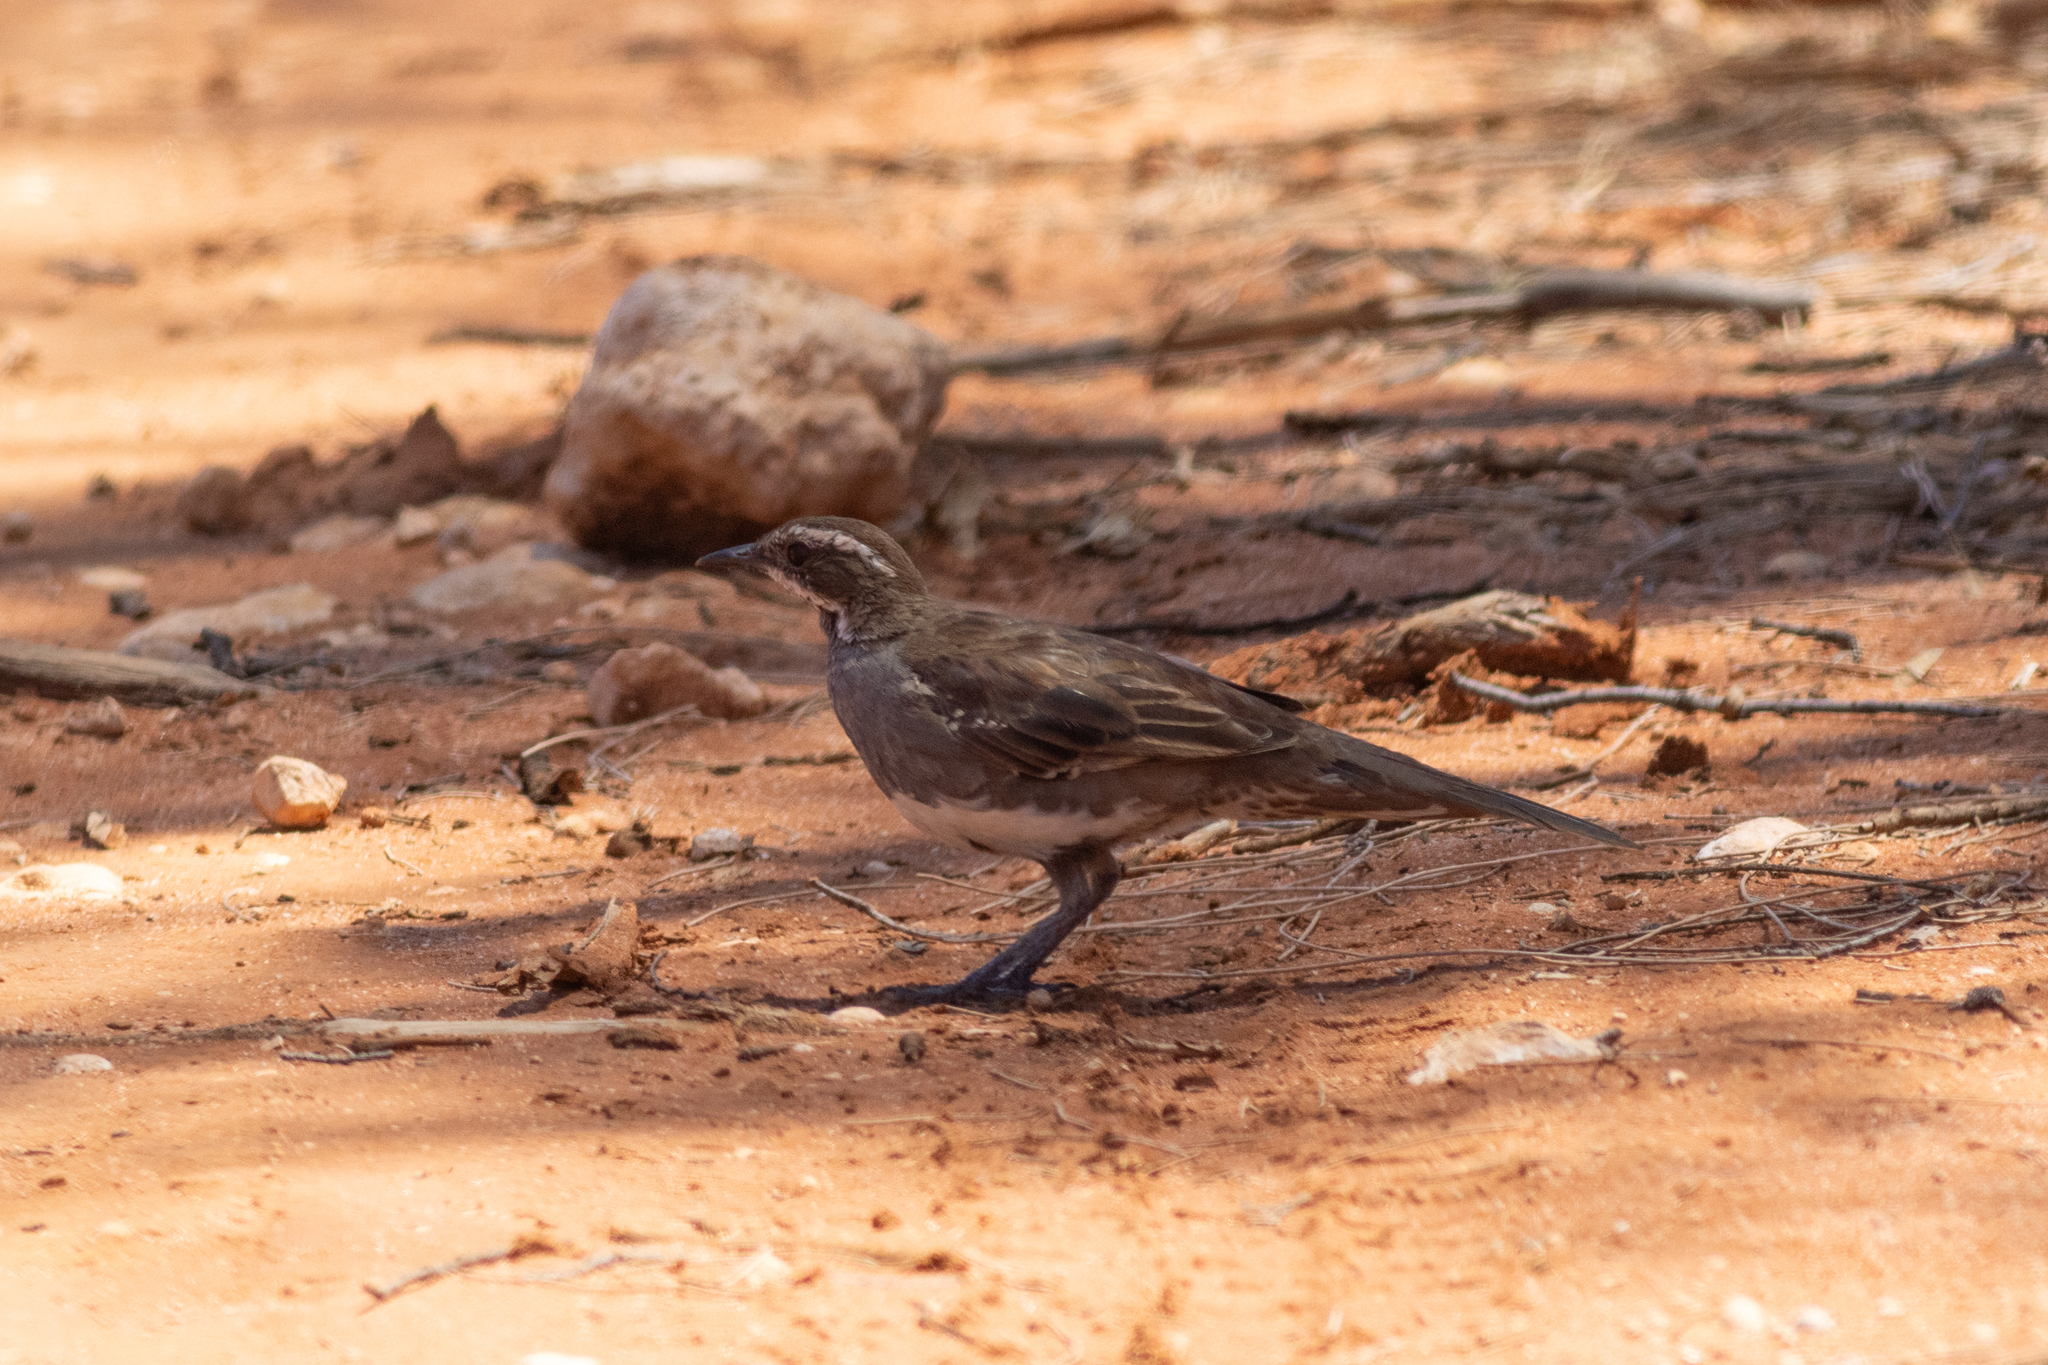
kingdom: Animalia
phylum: Chordata
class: Aves
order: Passeriformes
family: Psophodidae
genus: Cinclosoma
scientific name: Cinclosoma castanotum
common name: Chestnut quail-thrush
